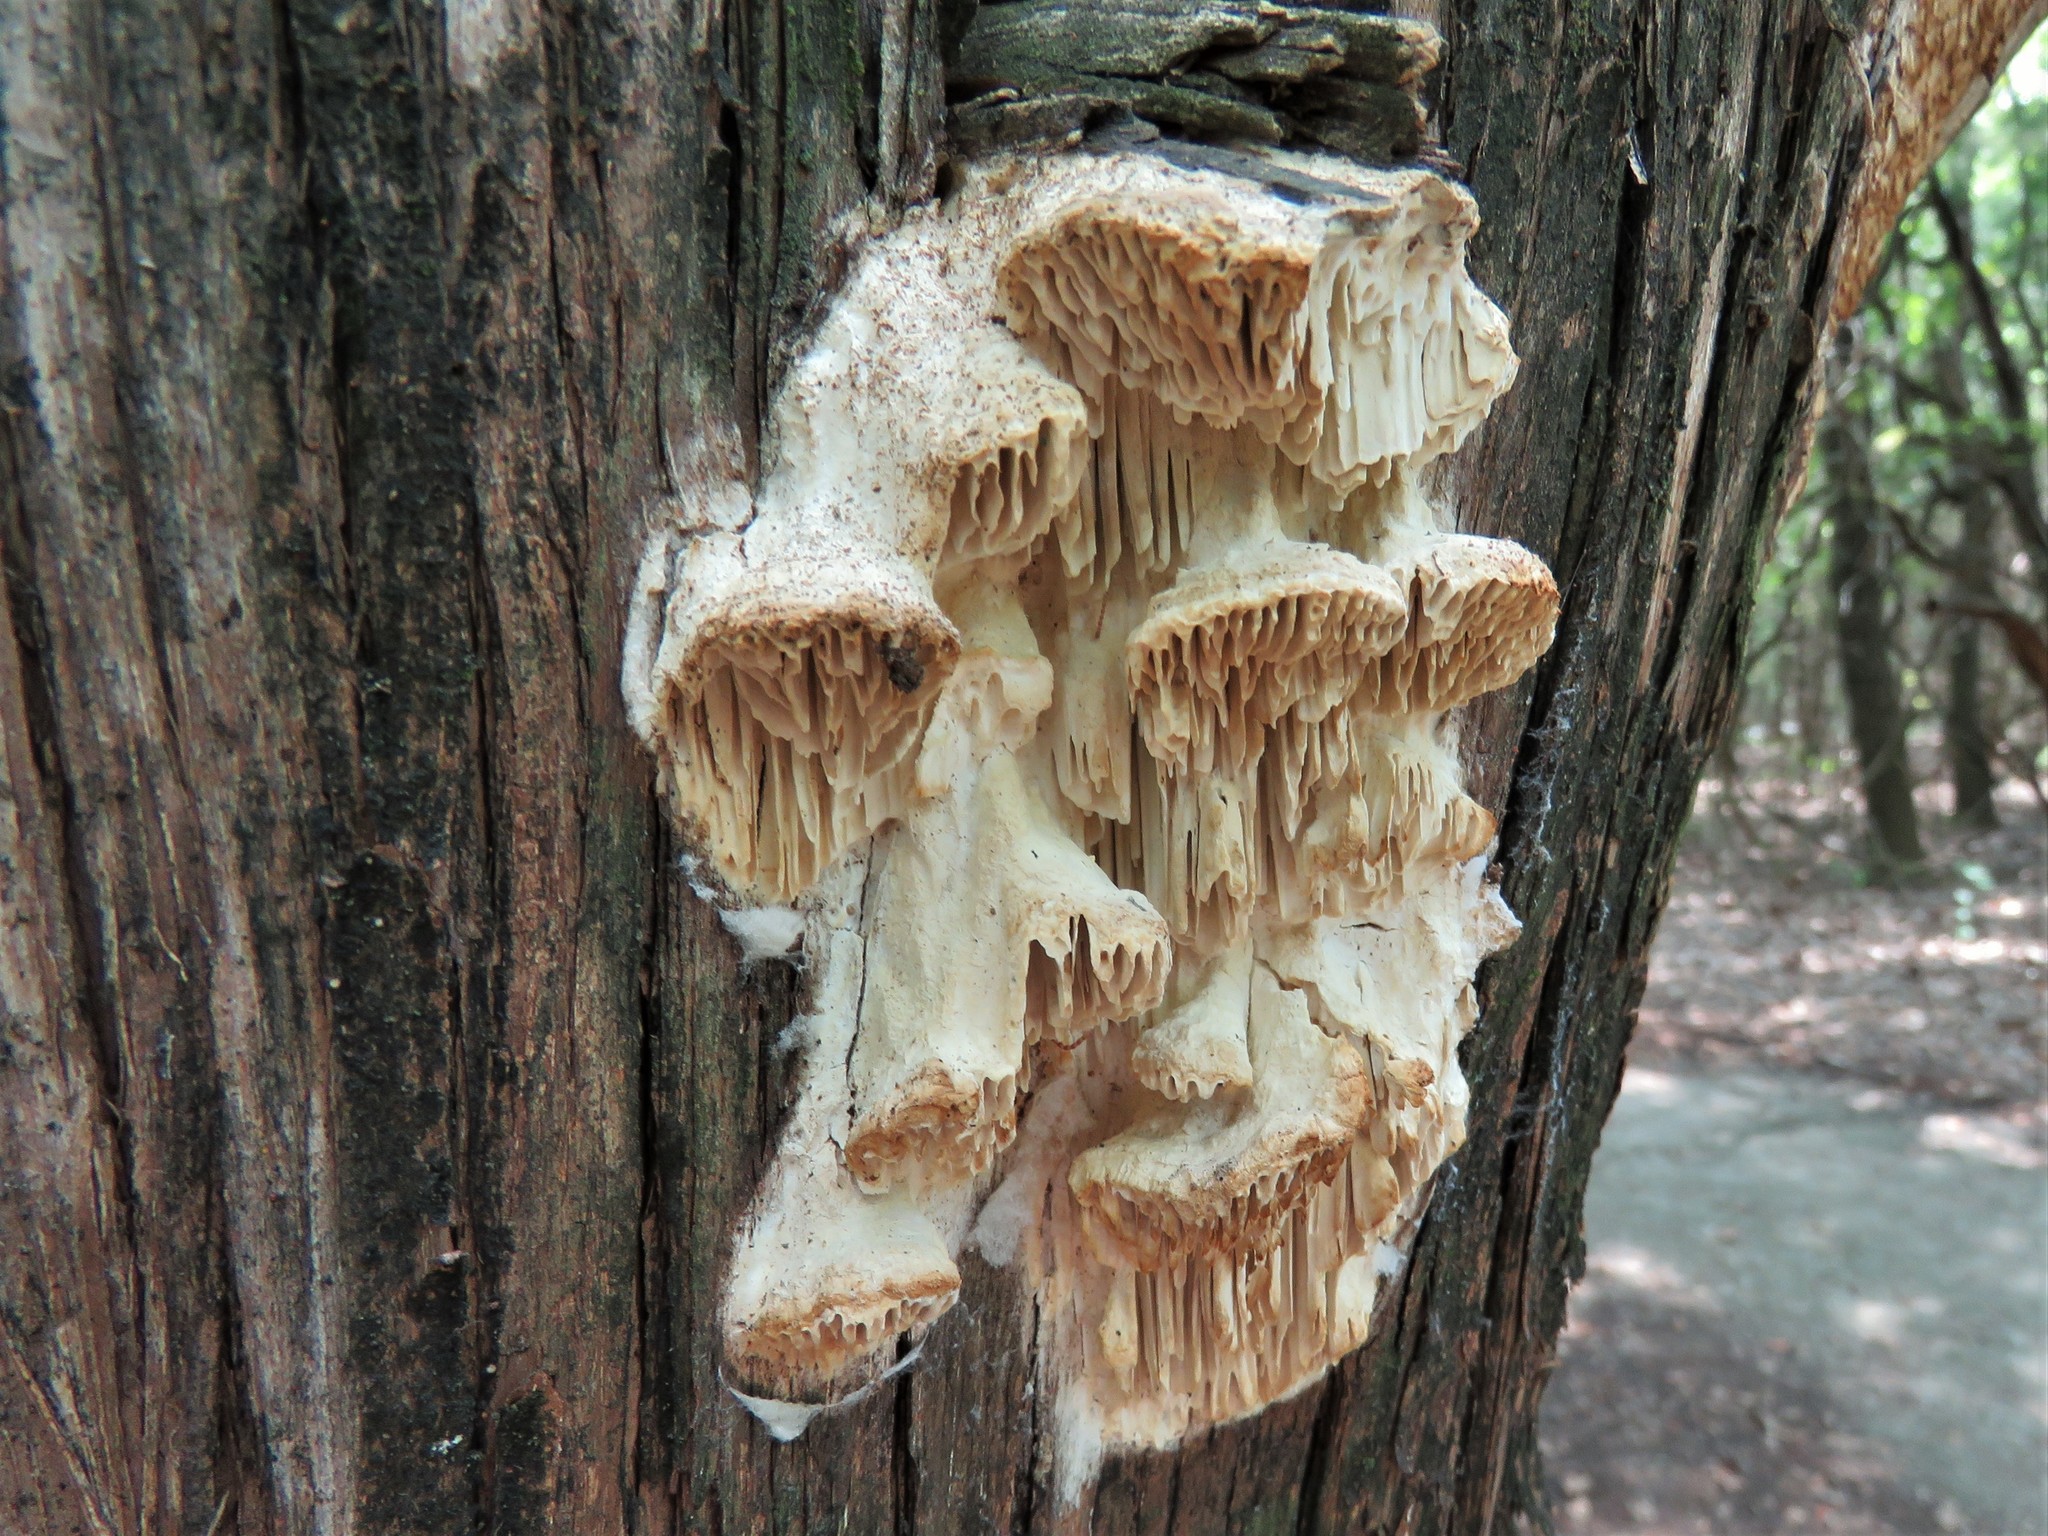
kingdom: Fungi
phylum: Basidiomycota
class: Agaricomycetes
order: Polyporales
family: Fomitopsidaceae
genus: Fomitopsis
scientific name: Fomitopsis
